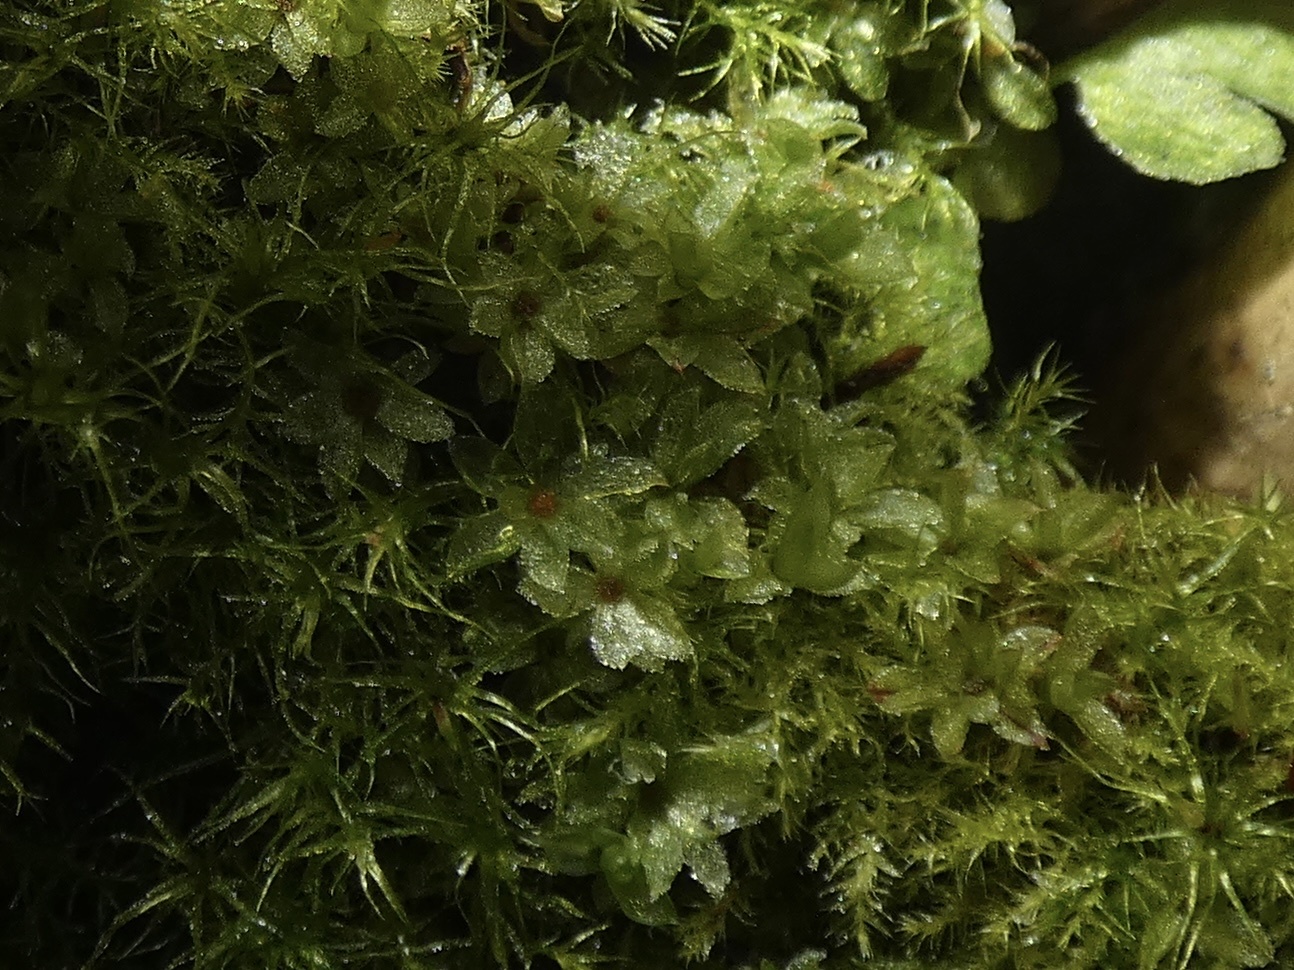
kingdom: Plantae
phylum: Bryophyta
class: Bryopsida
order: Funariales
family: Funariaceae
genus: Funaria
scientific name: Funaria hygrometrica
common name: Common cord moss
